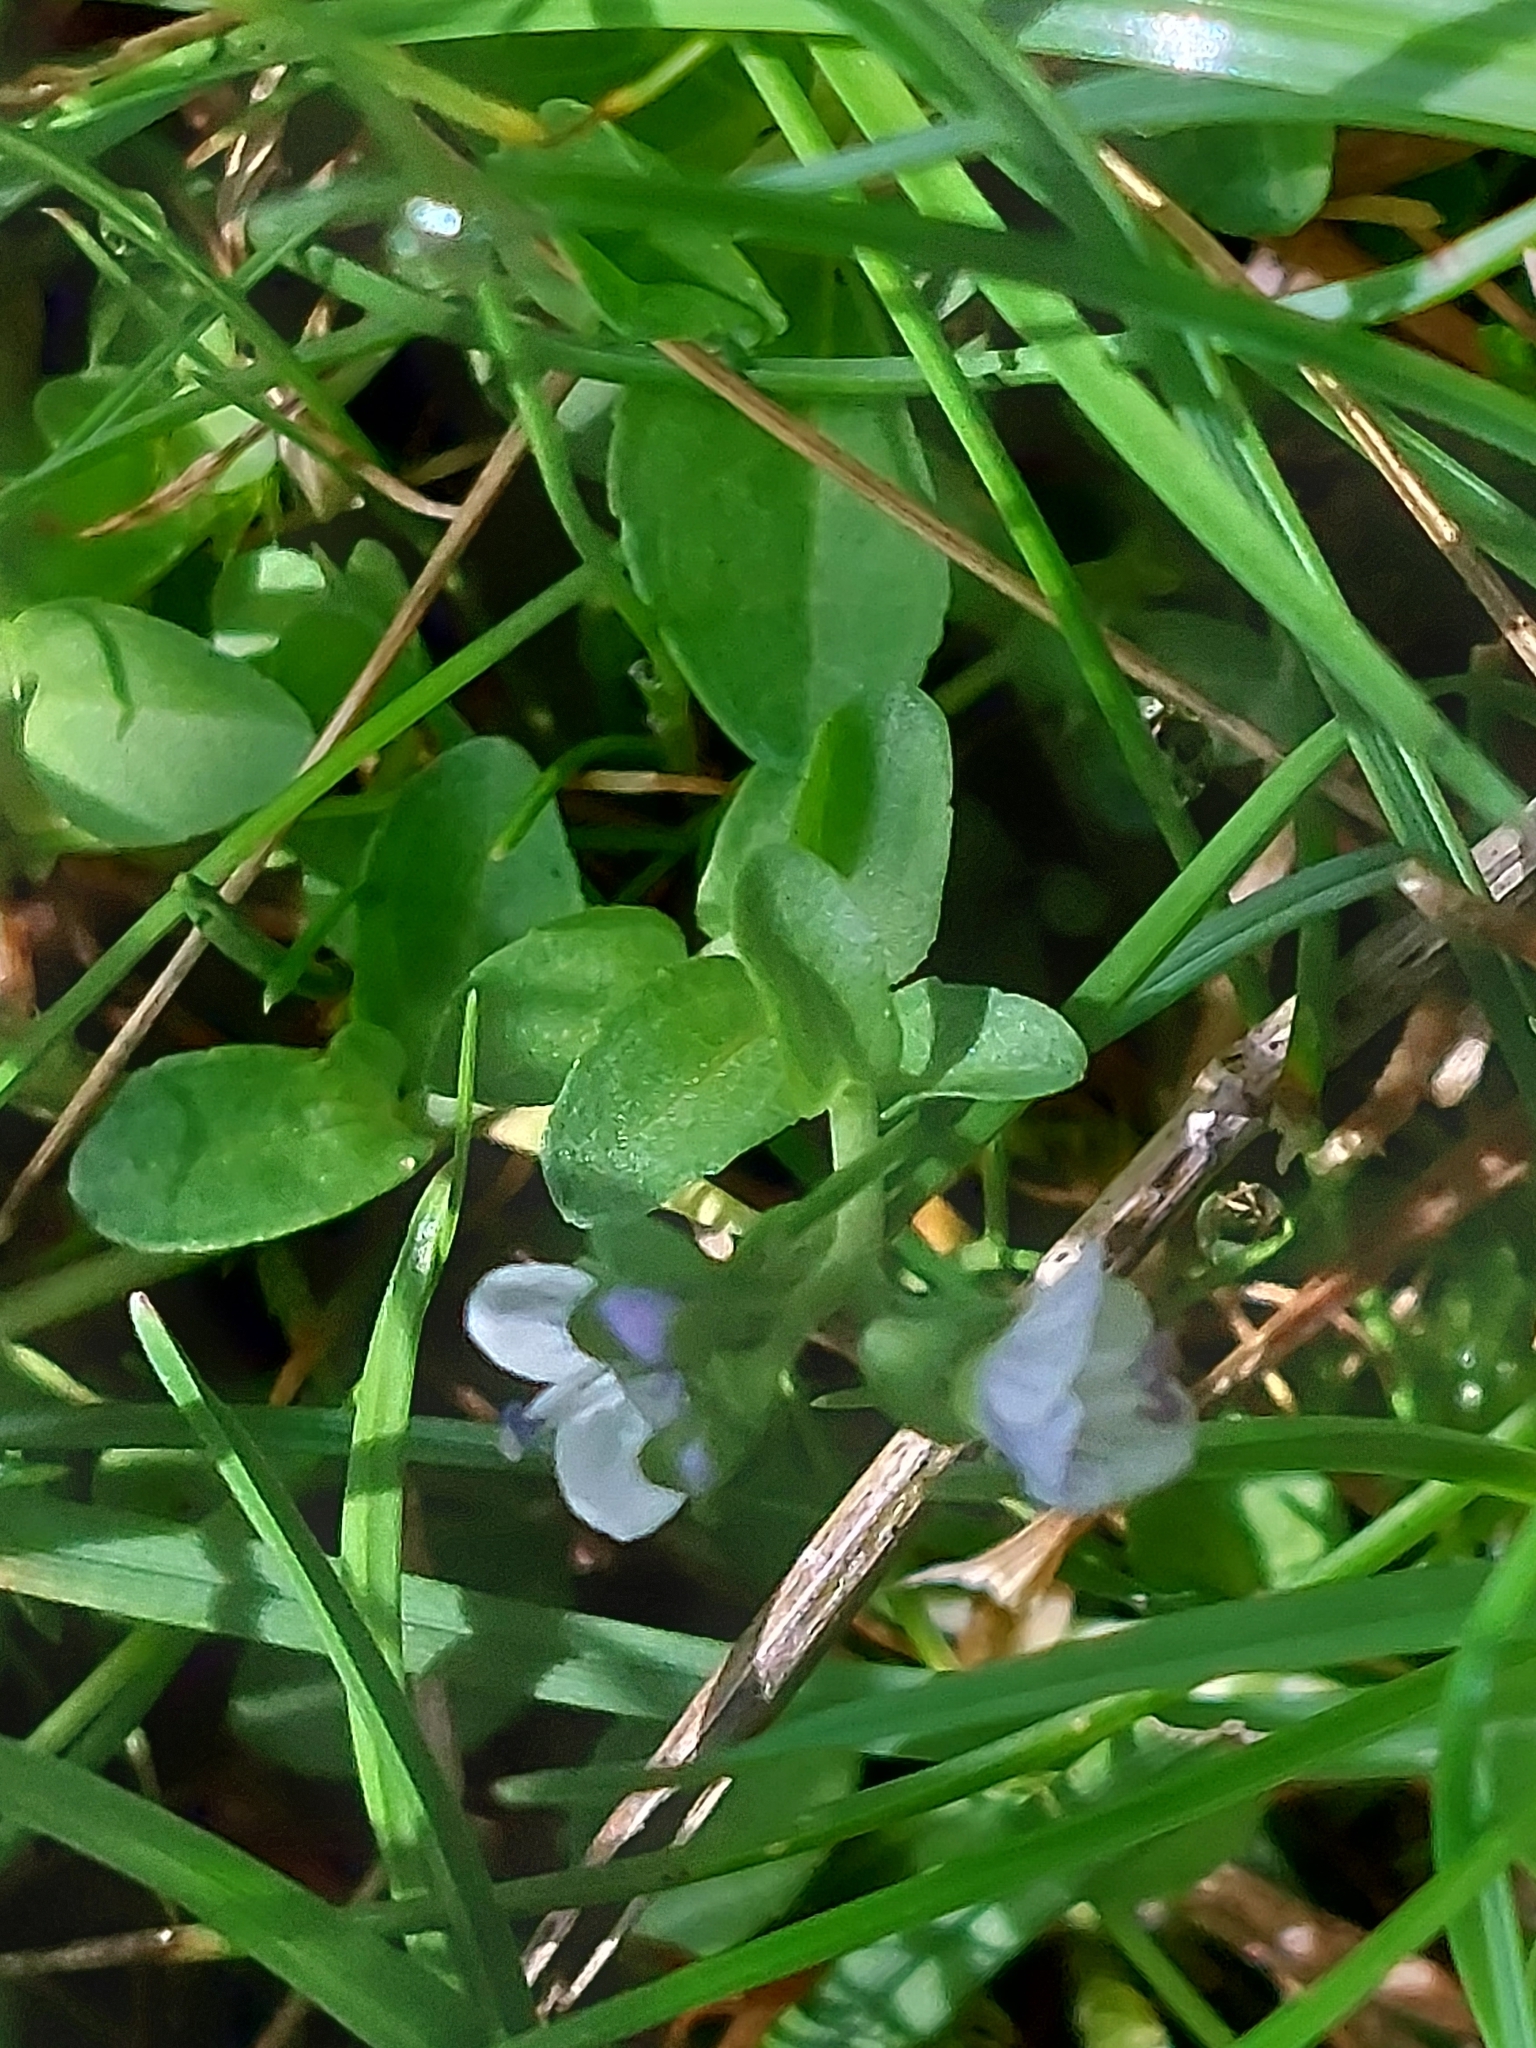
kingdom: Plantae
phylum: Tracheophyta
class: Magnoliopsida
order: Lamiales
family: Plantaginaceae
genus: Veronica
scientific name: Veronica serpyllifolia
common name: Thyme-leaved speedwell
